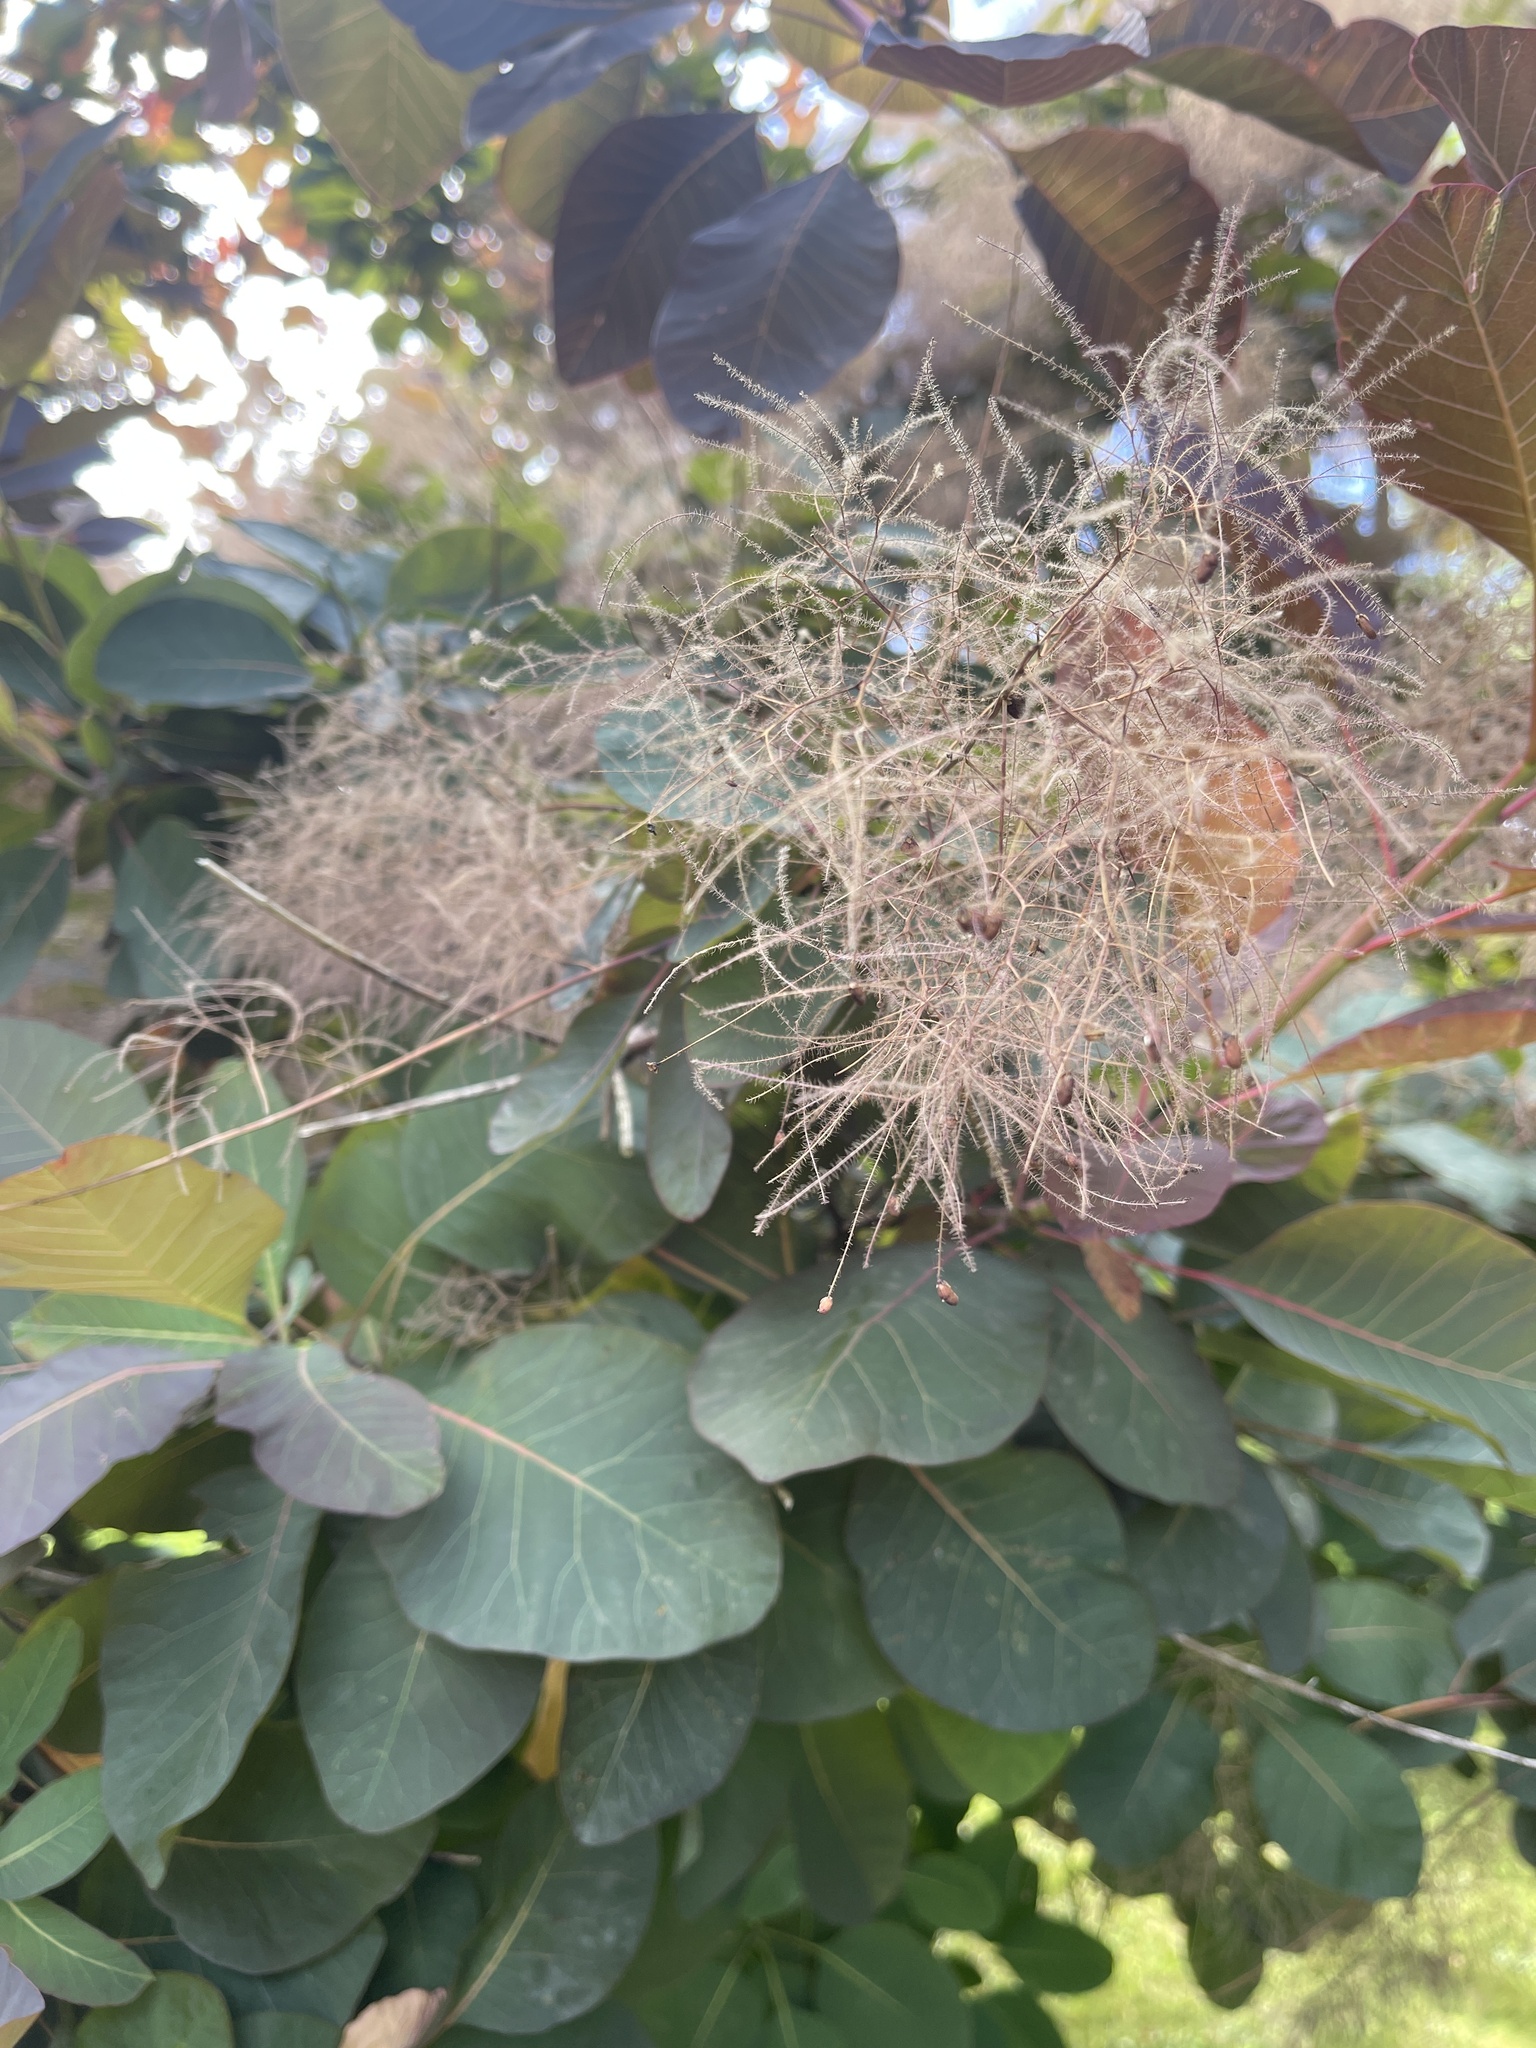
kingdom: Plantae
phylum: Tracheophyta
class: Magnoliopsida
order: Sapindales
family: Anacardiaceae
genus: Cotinus
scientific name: Cotinus coggygria
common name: Smoke-tree
